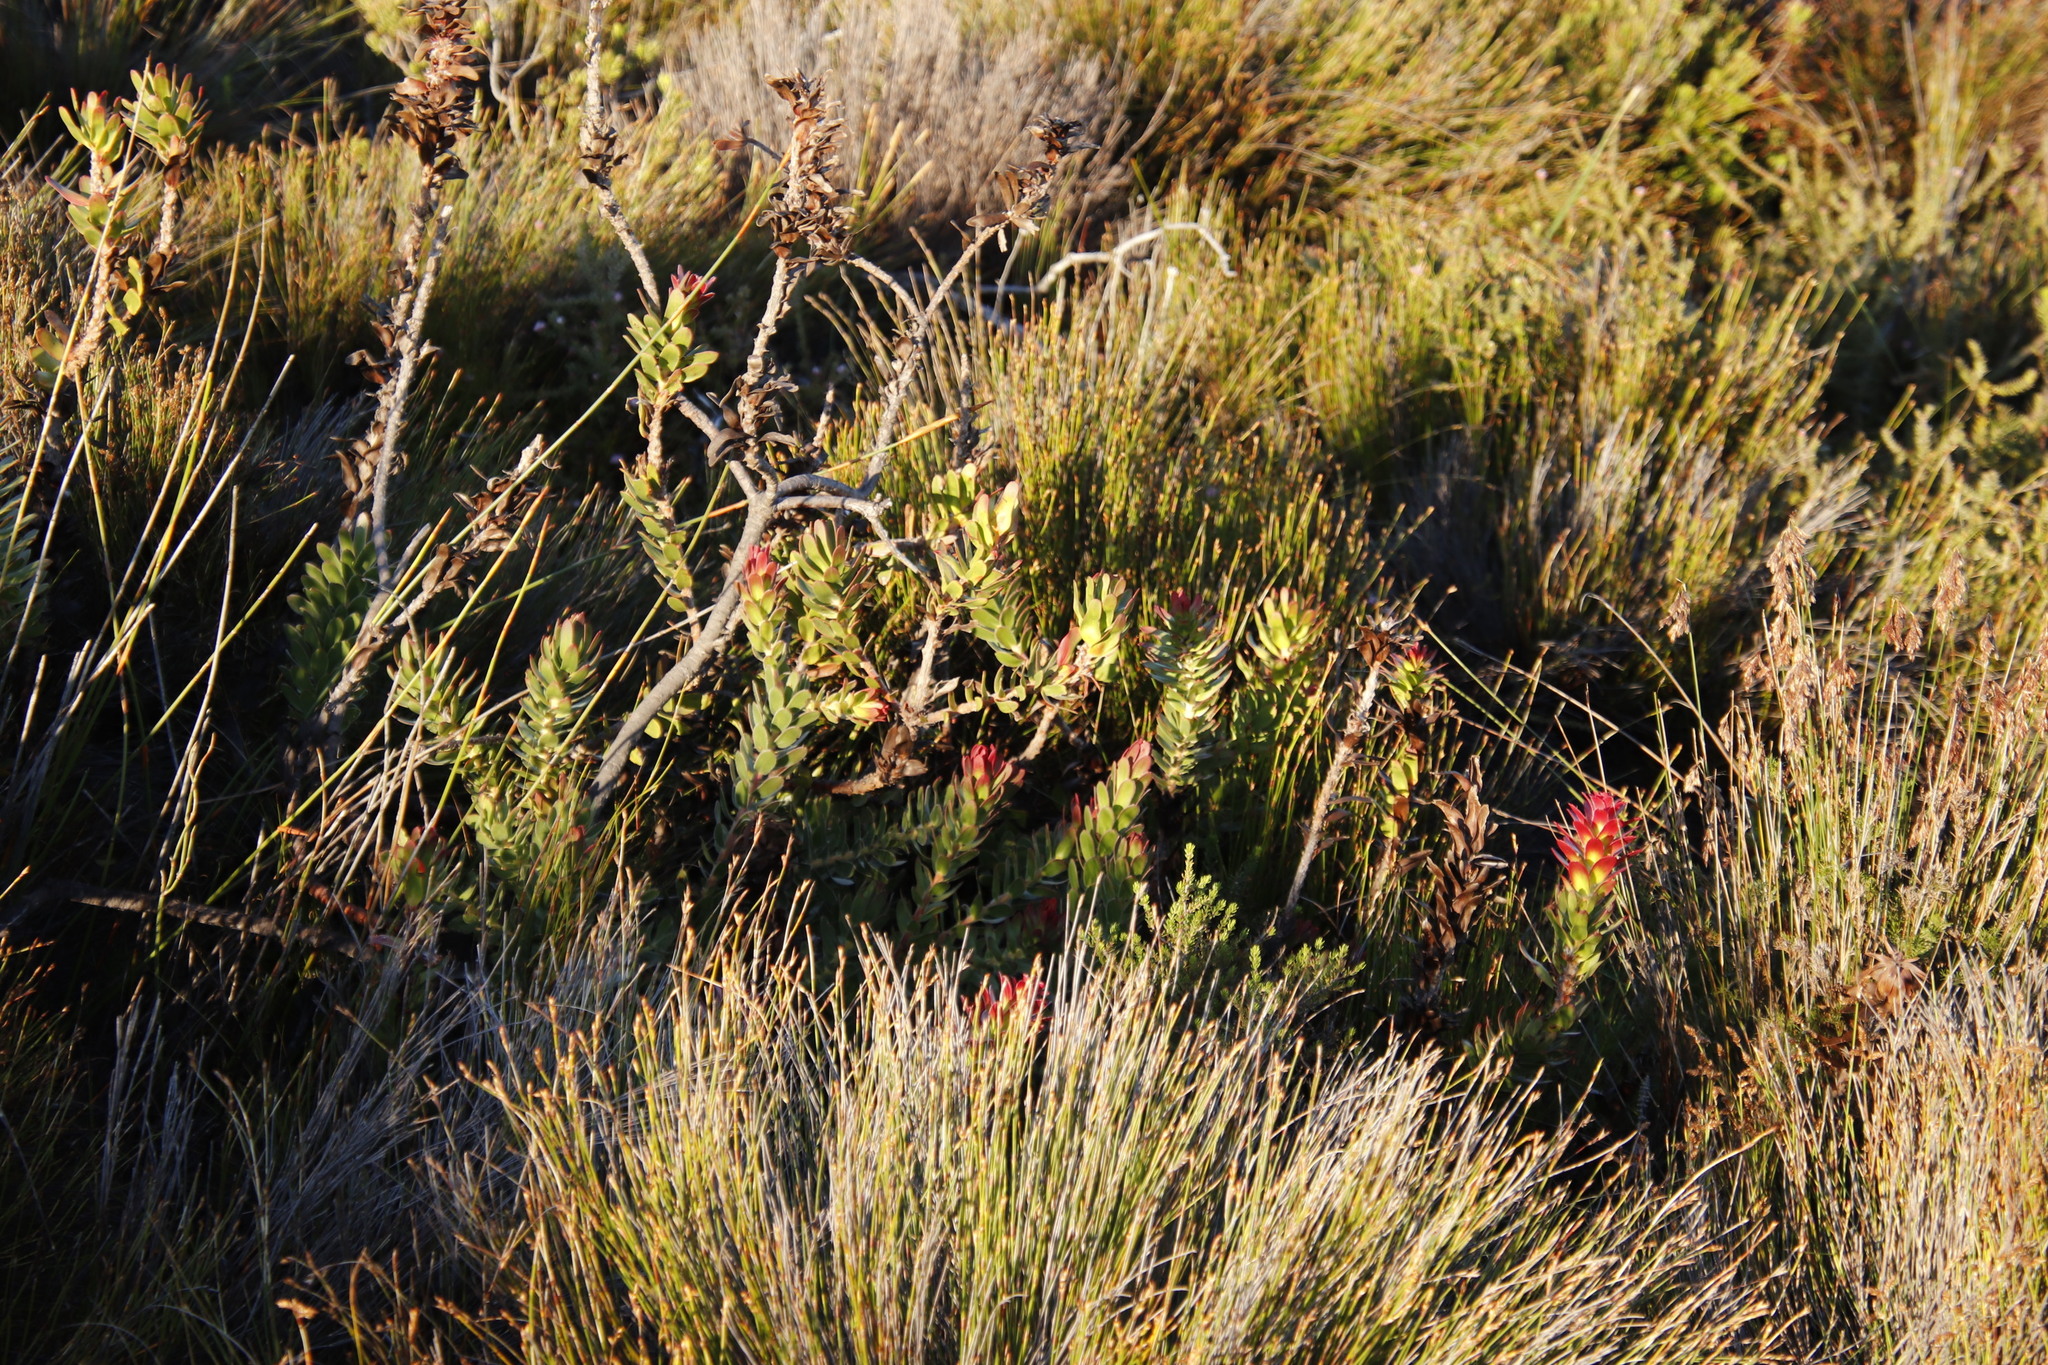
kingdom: Plantae
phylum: Tracheophyta
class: Magnoliopsida
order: Proteales
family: Proteaceae
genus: Mimetes
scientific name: Mimetes cucullatus
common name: Common pagoda
